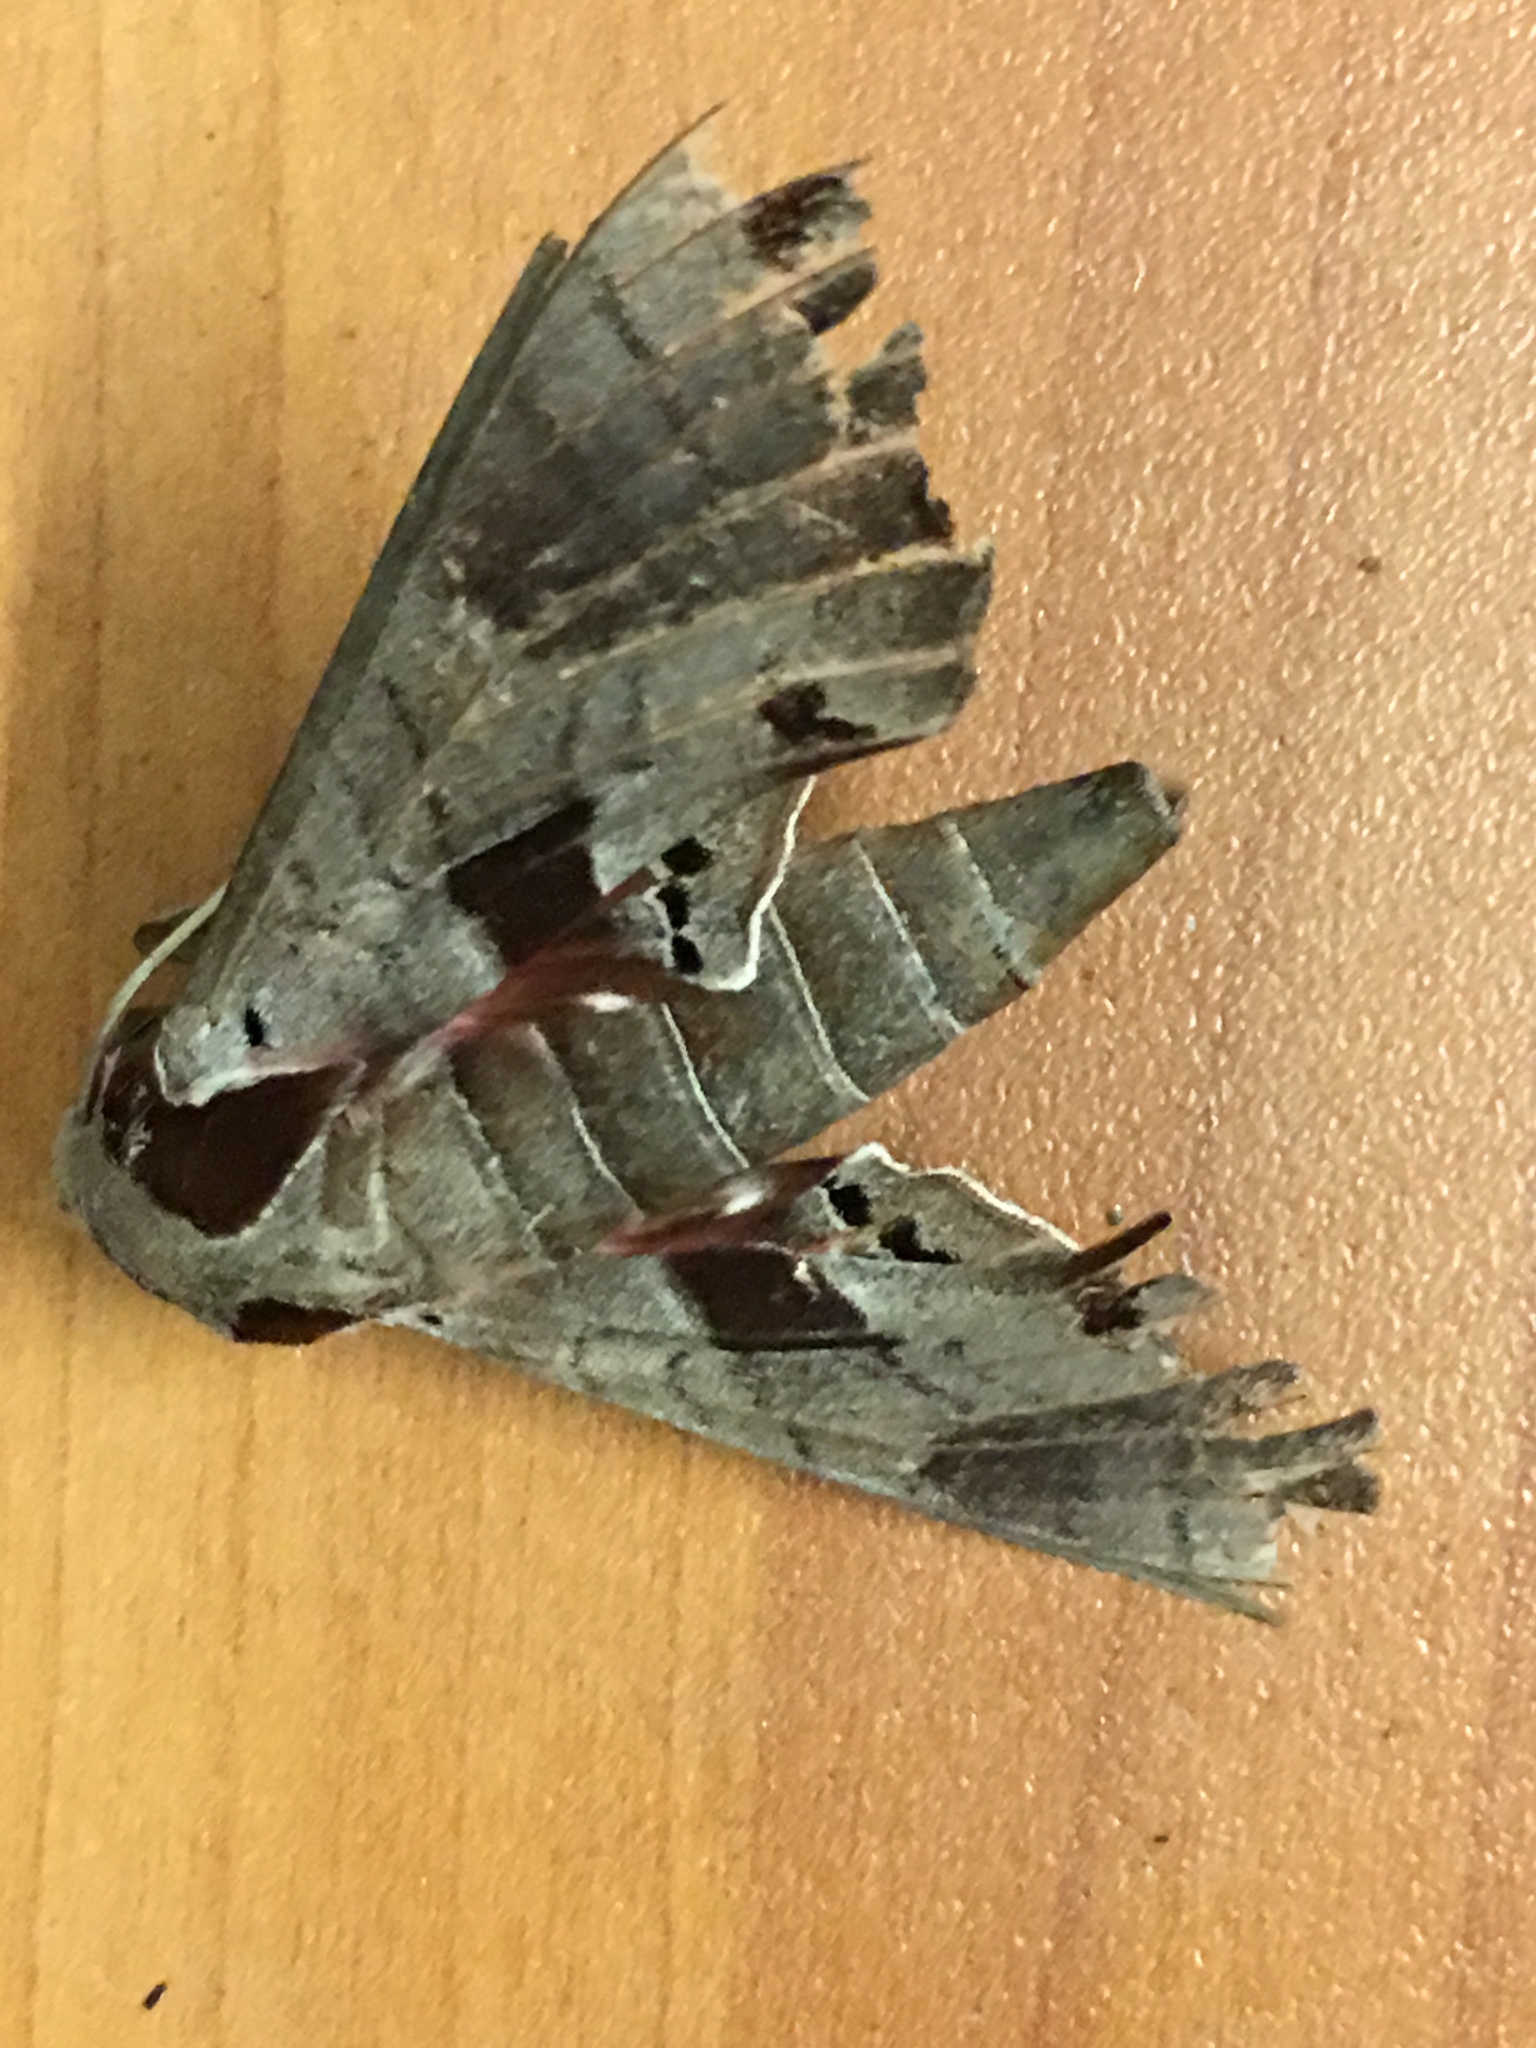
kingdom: Animalia
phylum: Arthropoda
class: Insecta
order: Lepidoptera
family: Sphingidae
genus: Eumorpha
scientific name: Eumorpha achemon
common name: Achemon sphinx
